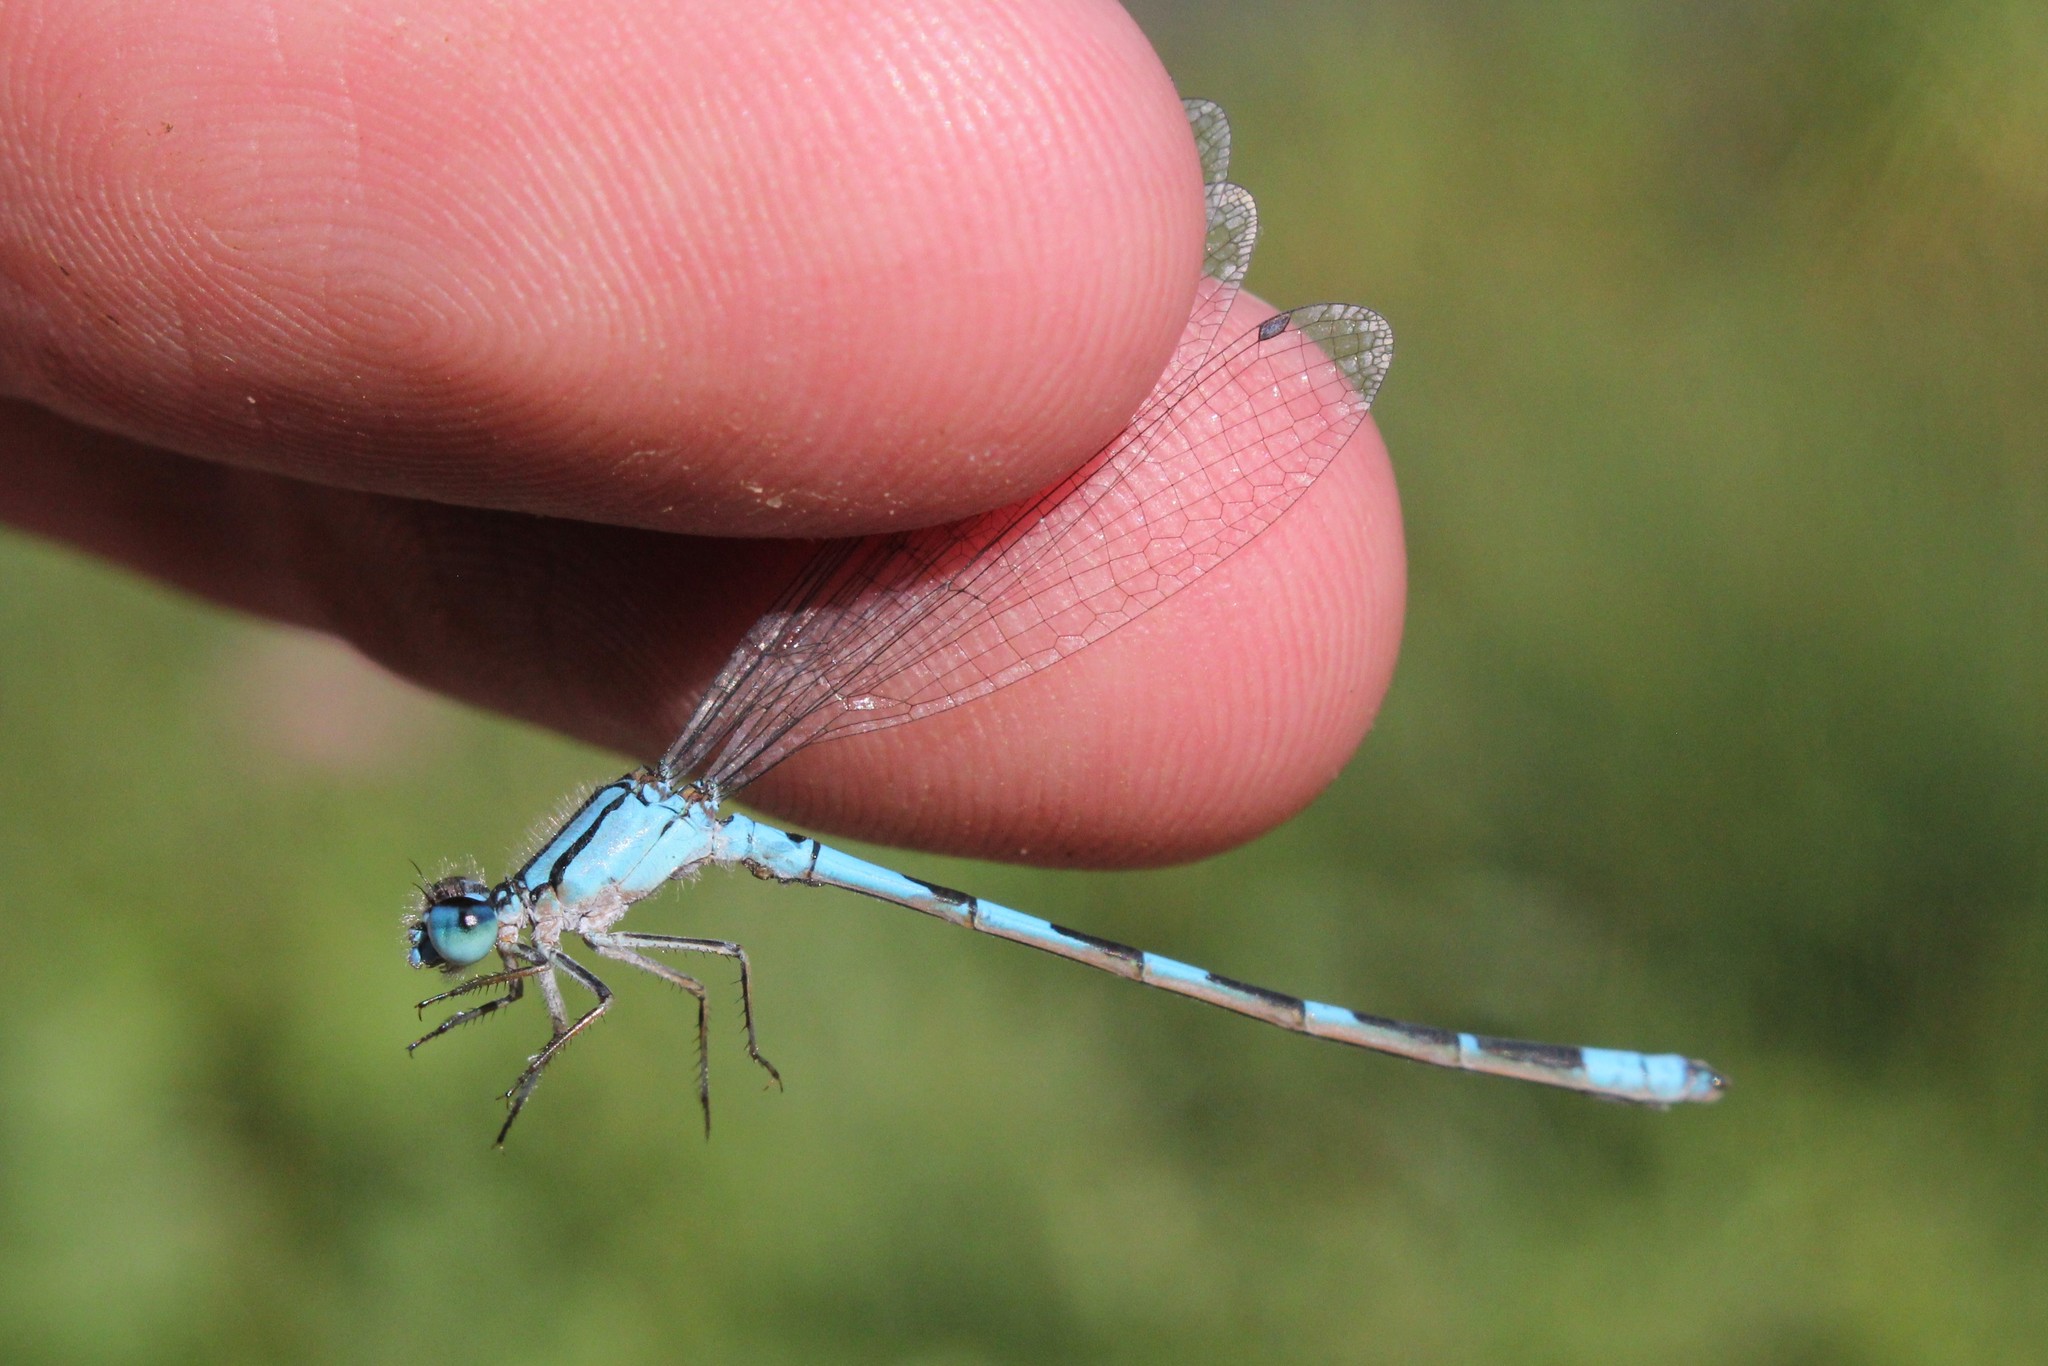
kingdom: Animalia
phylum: Arthropoda
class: Insecta
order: Odonata
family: Coenagrionidae
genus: Enallagma
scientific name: Enallagma carunculatum
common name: Tule bluet
